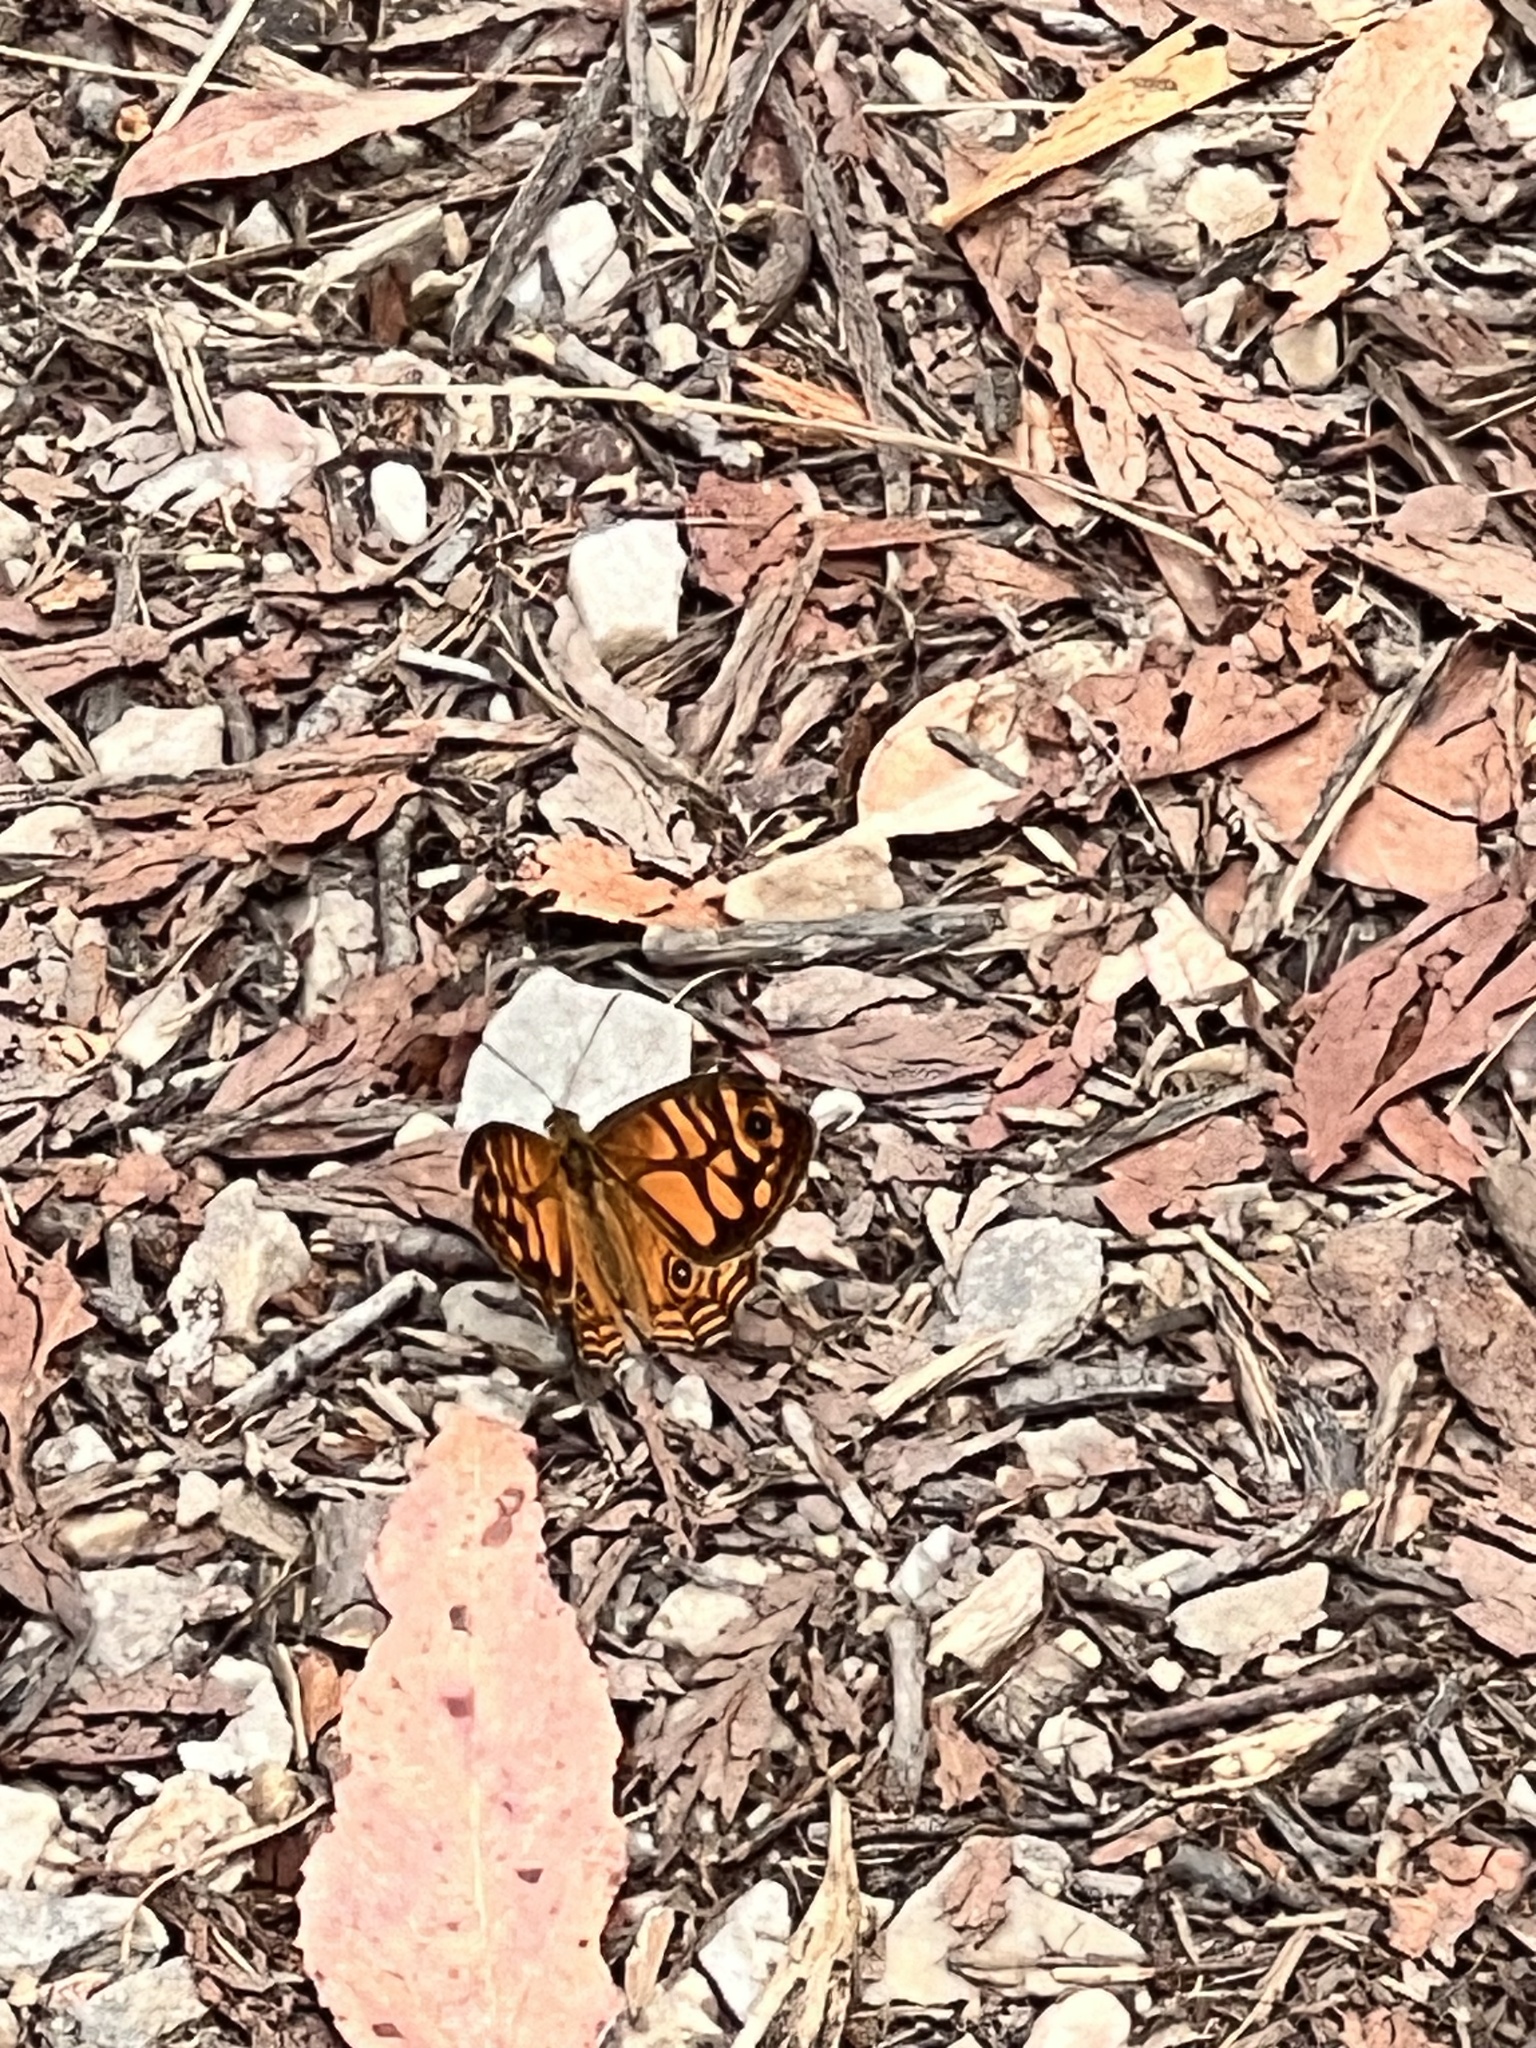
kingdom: Animalia
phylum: Arthropoda
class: Insecta
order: Lepidoptera
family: Nymphalidae
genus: Geitoneura
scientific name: Geitoneura acantha
